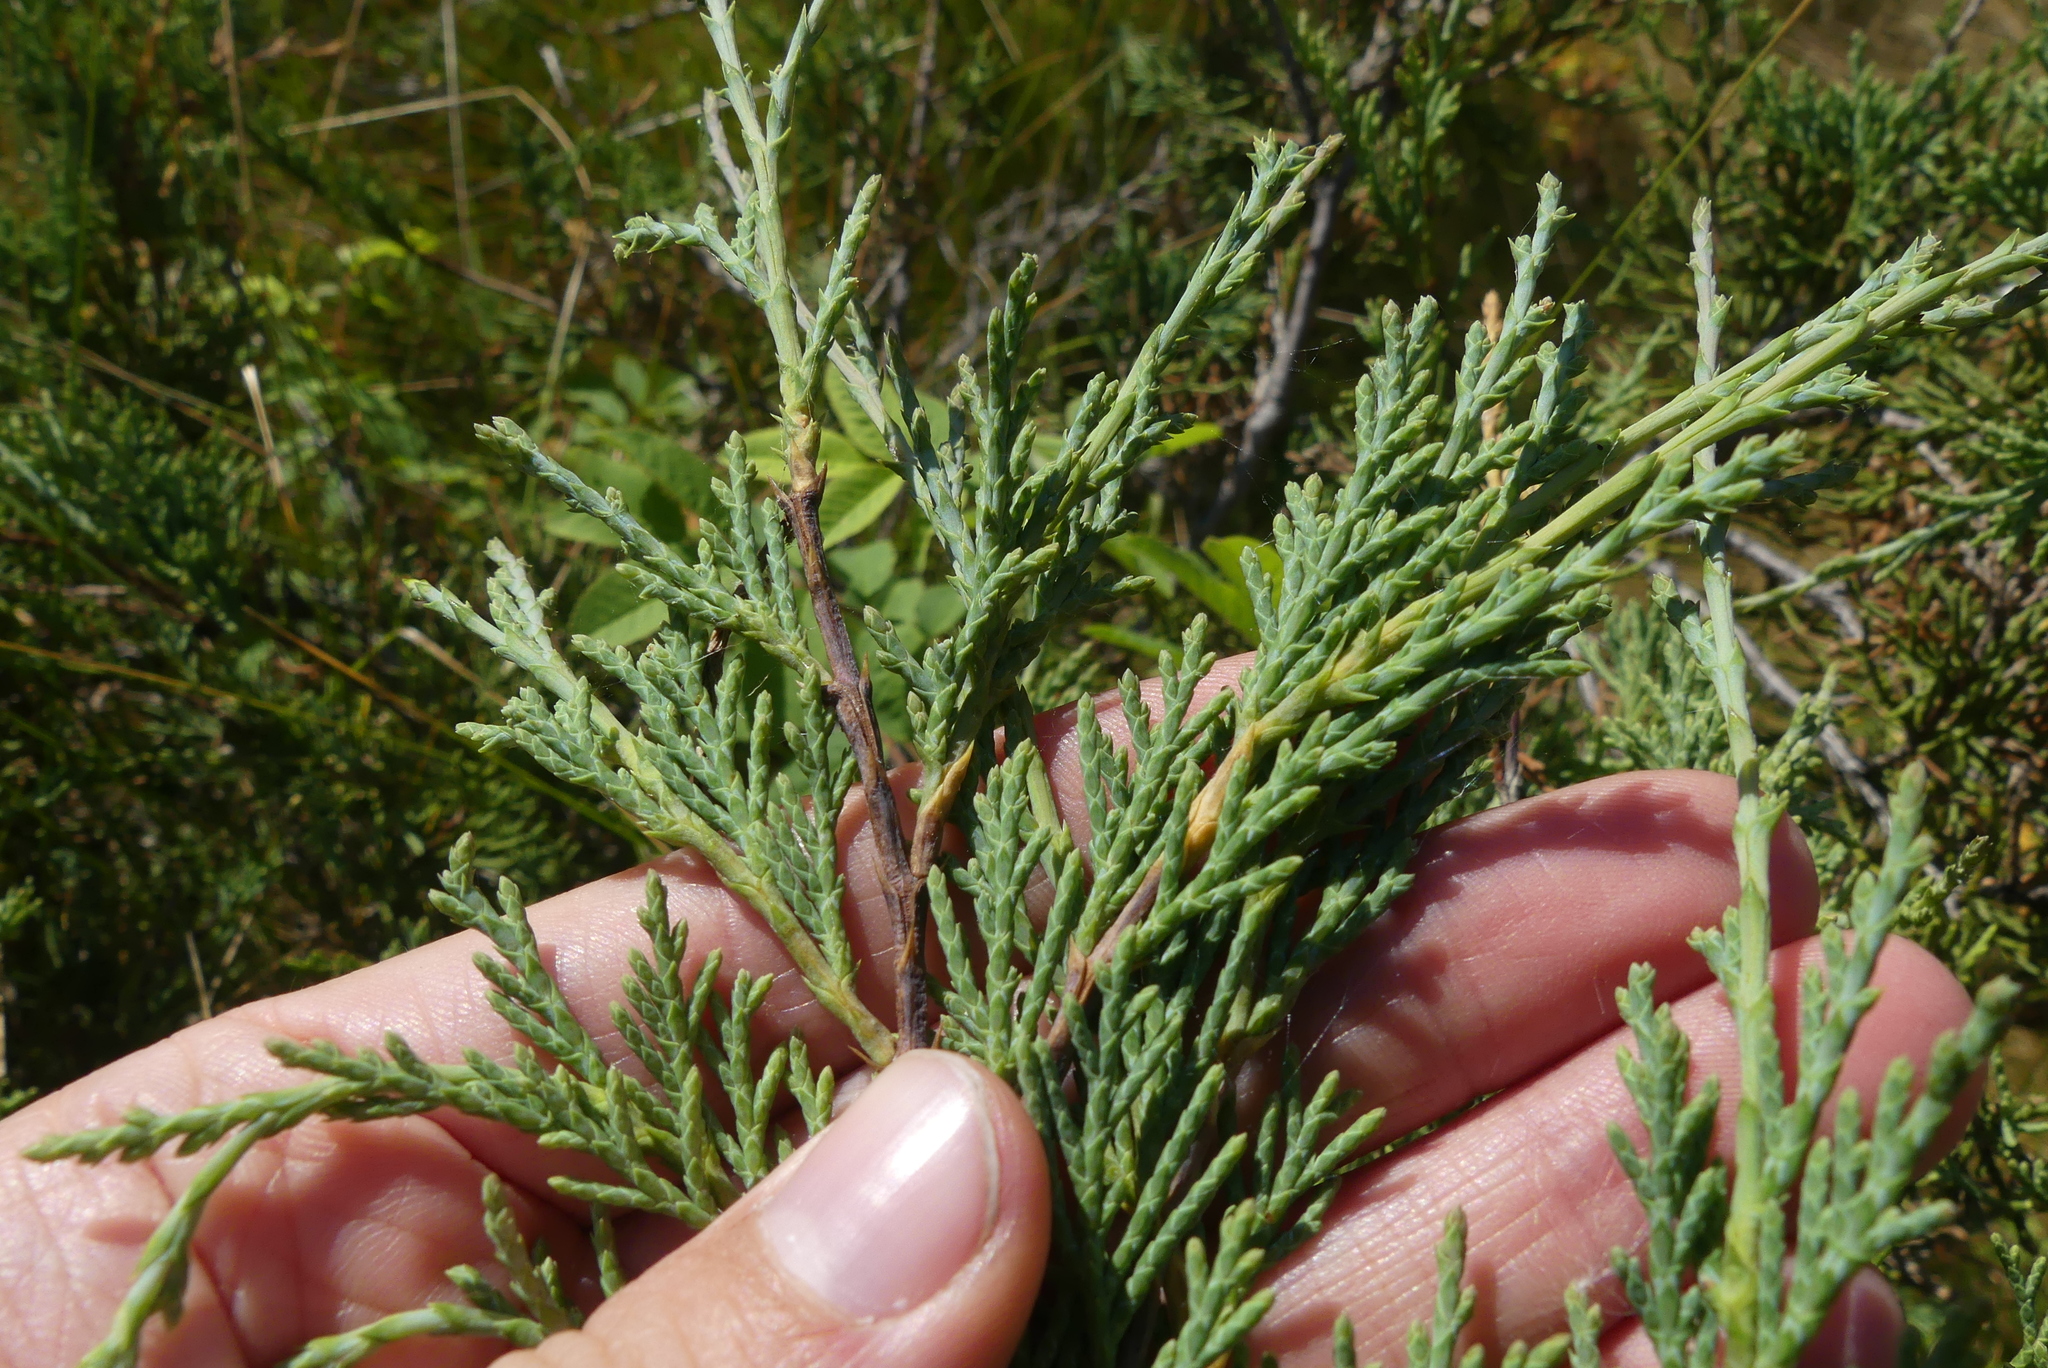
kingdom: Plantae
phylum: Tracheophyta
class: Pinopsida
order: Pinales
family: Cupressaceae
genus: Juniperus
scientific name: Juniperus scopulorum
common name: Rocky mountain juniper
